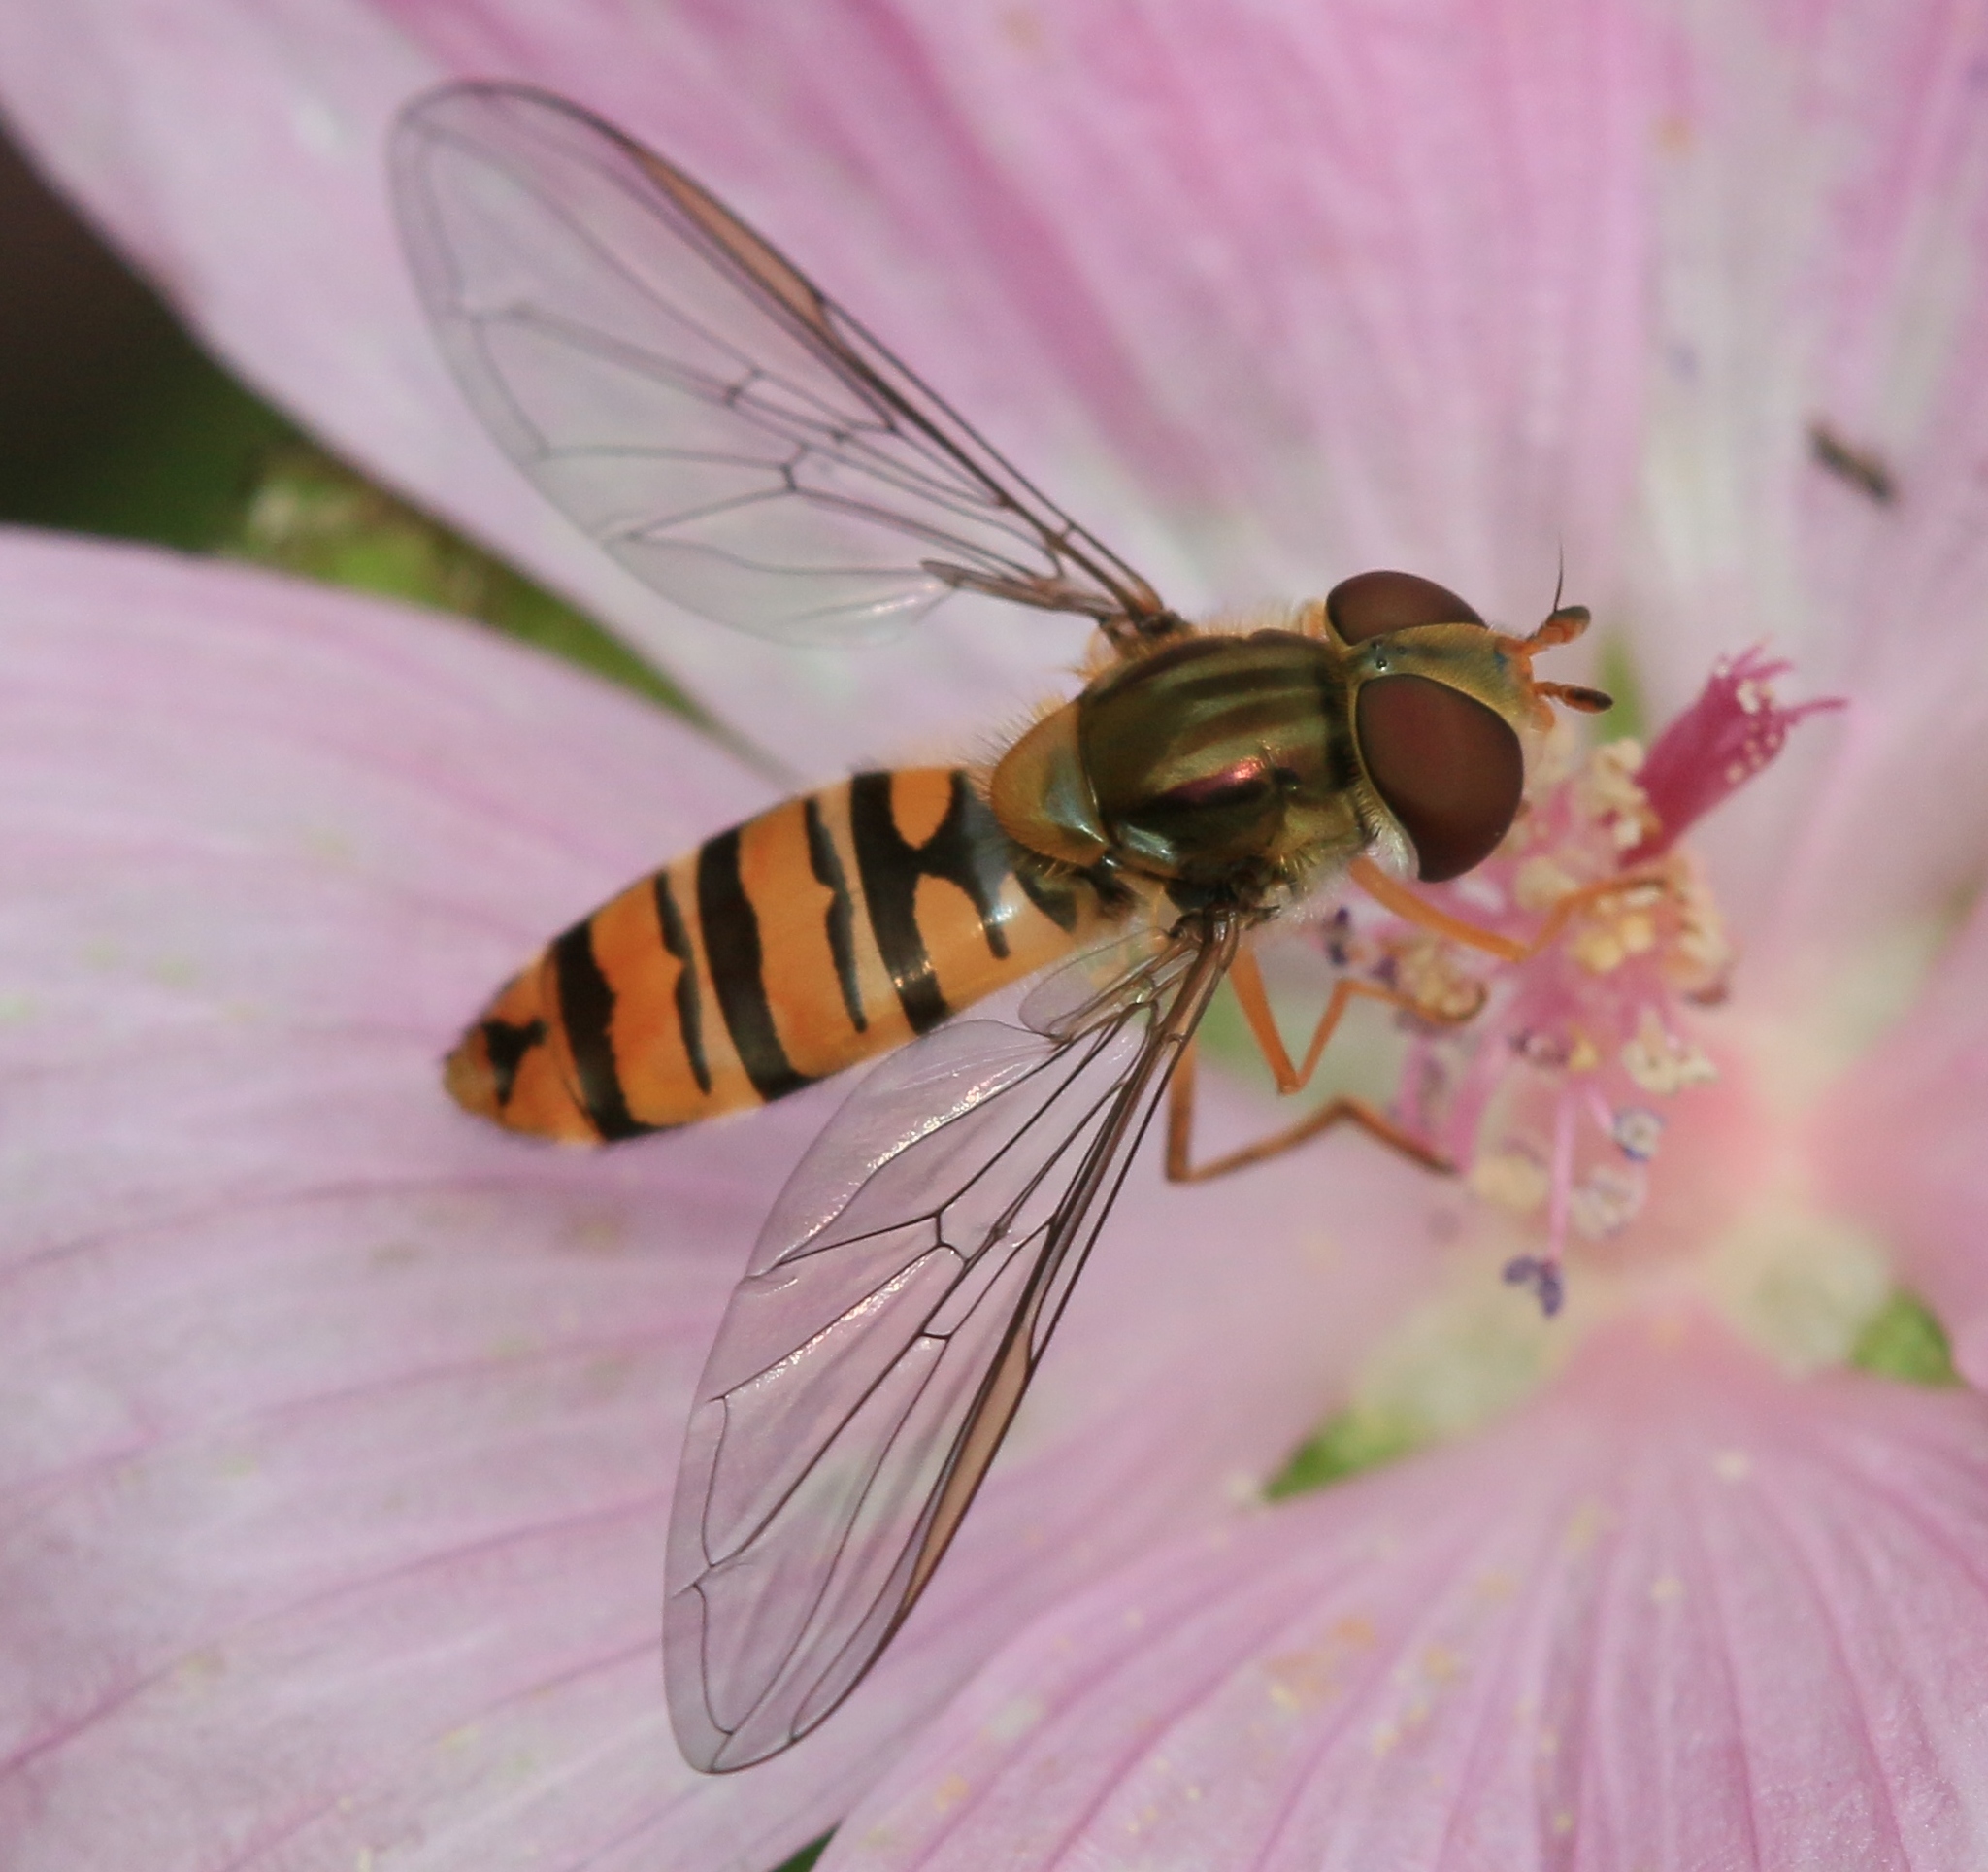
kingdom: Animalia
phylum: Arthropoda
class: Insecta
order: Diptera
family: Syrphidae
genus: Episyrphus
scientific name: Episyrphus balteatus
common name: Marmalade hoverfly
